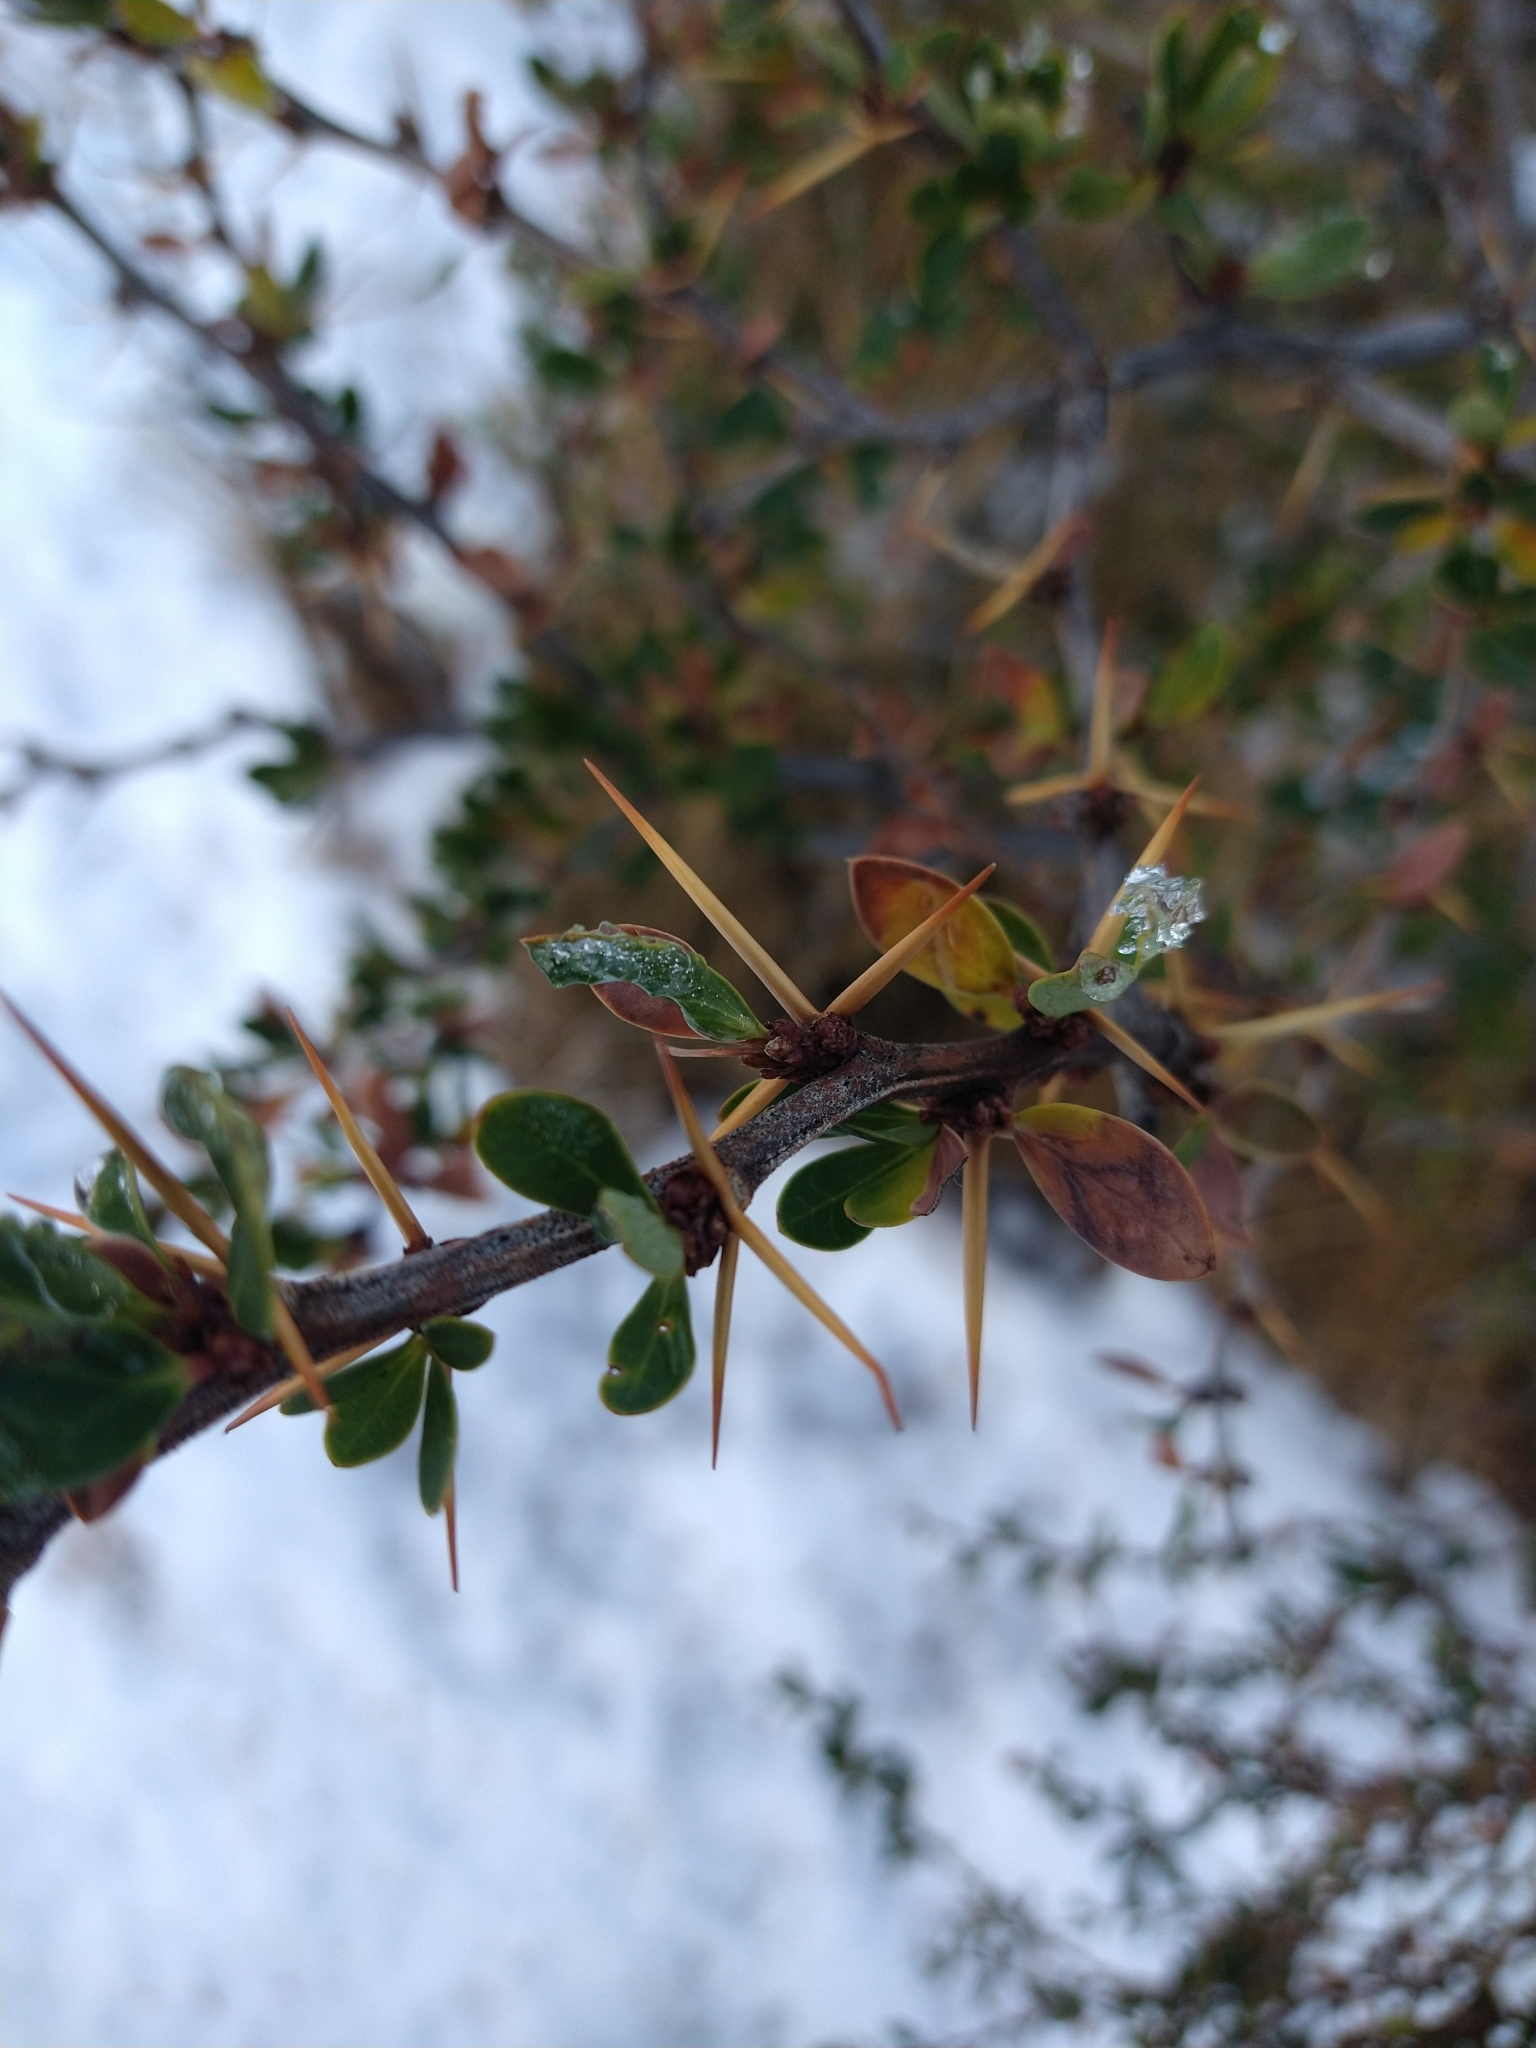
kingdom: Plantae
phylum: Tracheophyta
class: Magnoliopsida
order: Ranunculales
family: Berberidaceae
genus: Berberis
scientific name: Berberis microphylla
